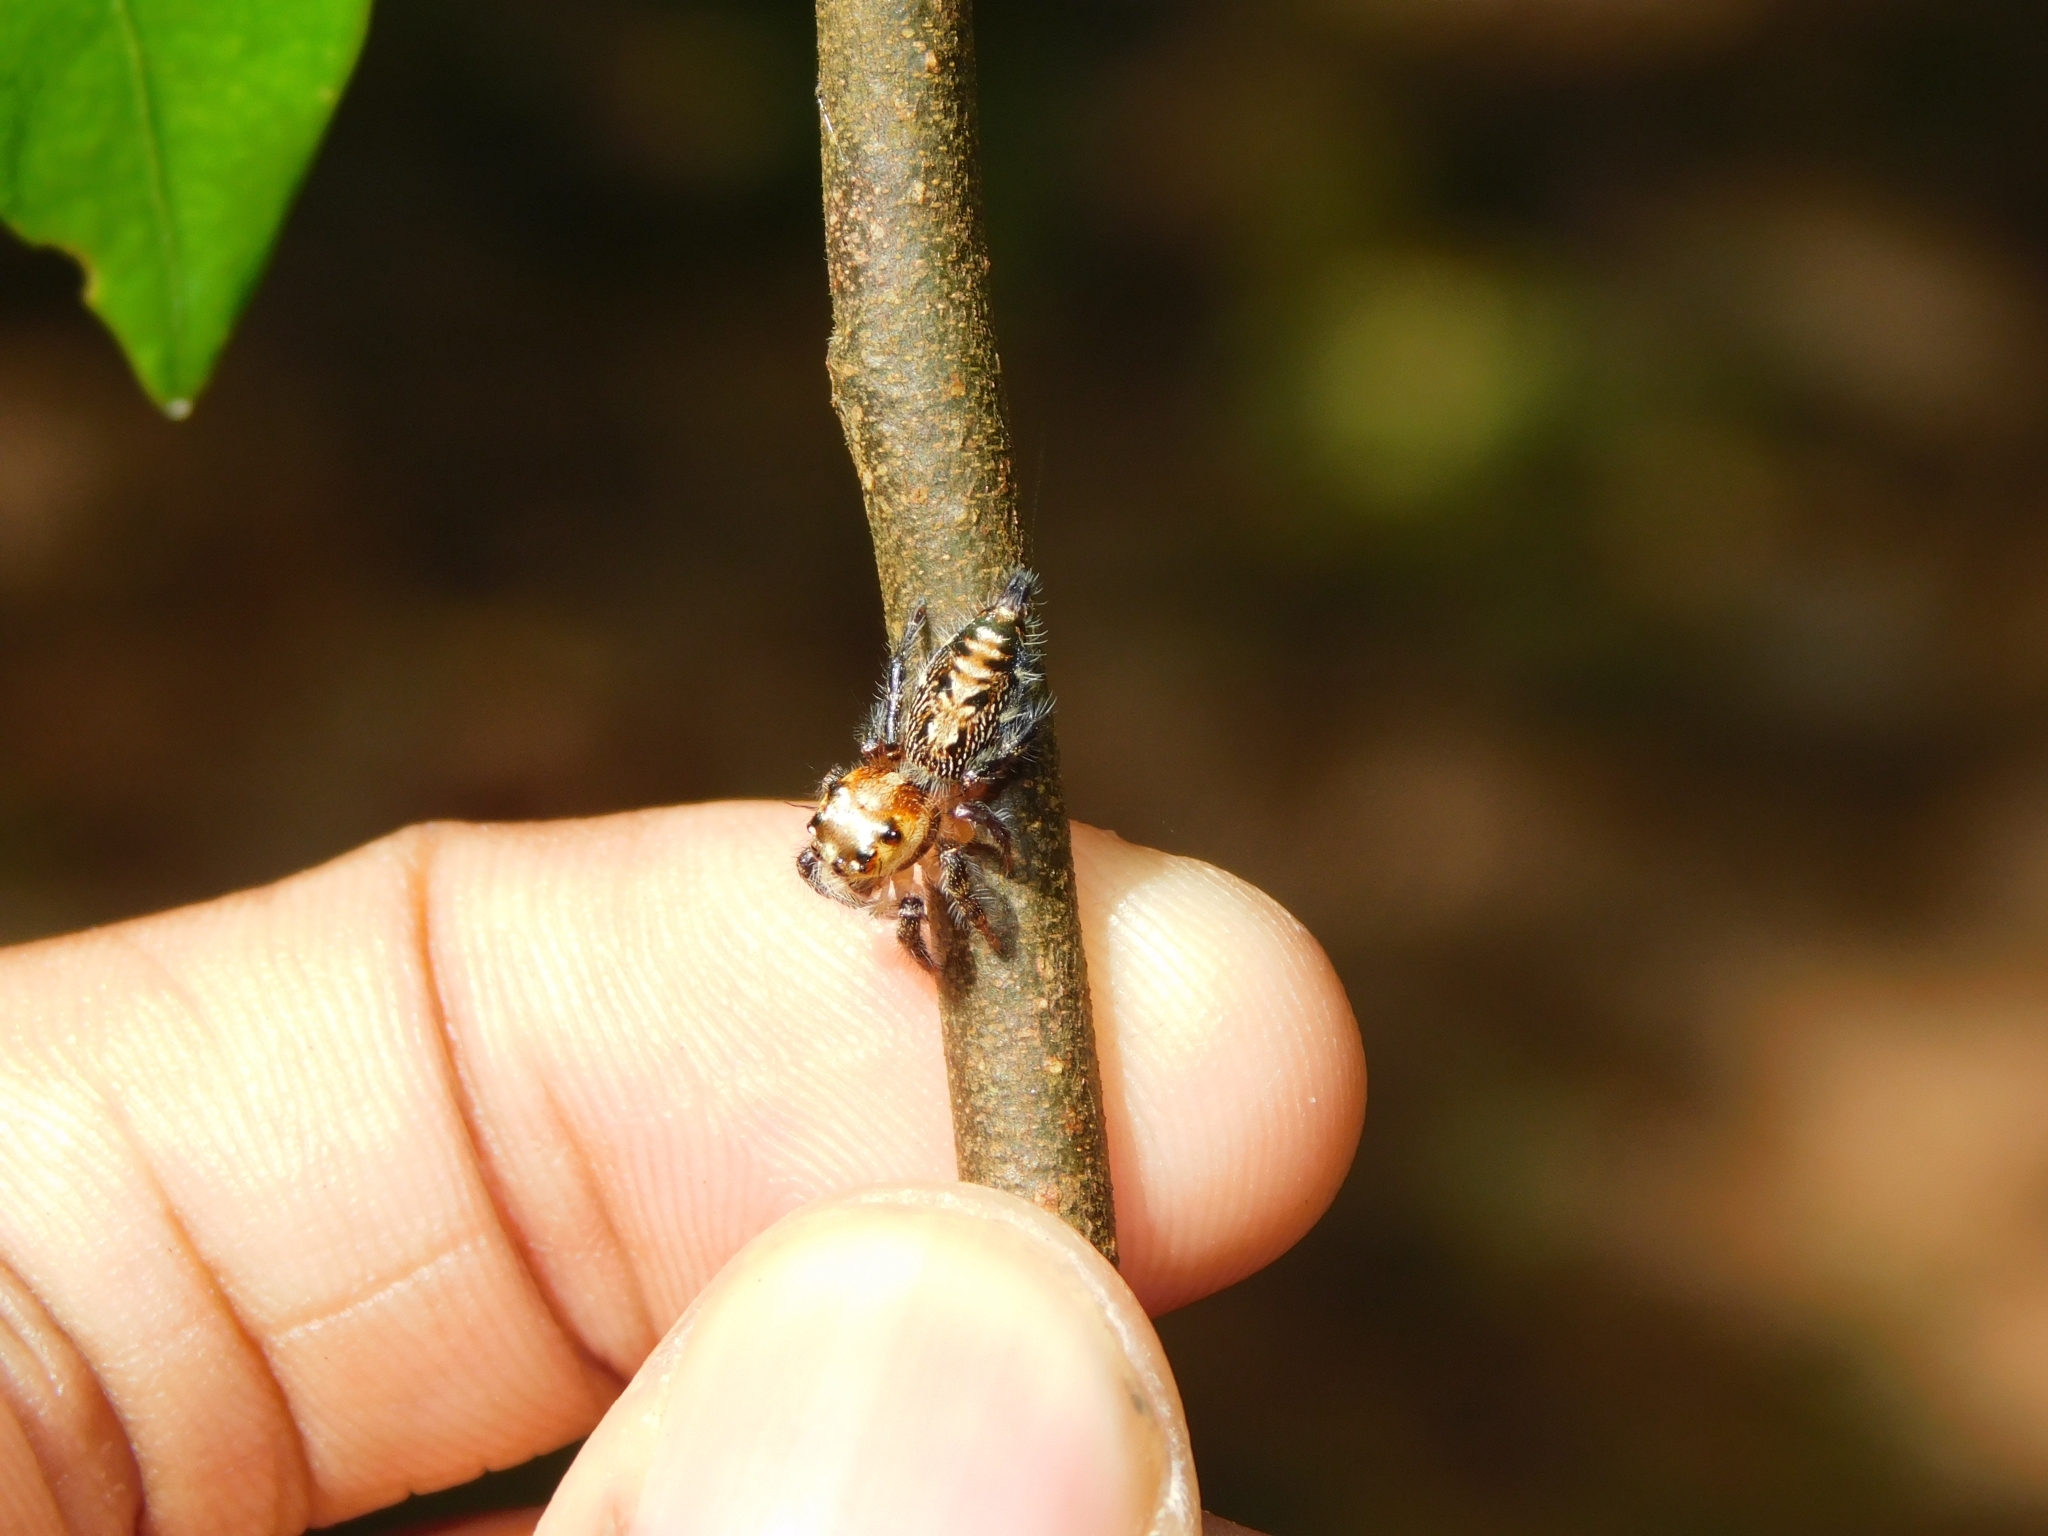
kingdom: Animalia
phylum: Arthropoda
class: Arachnida
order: Araneae
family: Salticidae
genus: Hyllus
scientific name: Hyllus semicupreus
